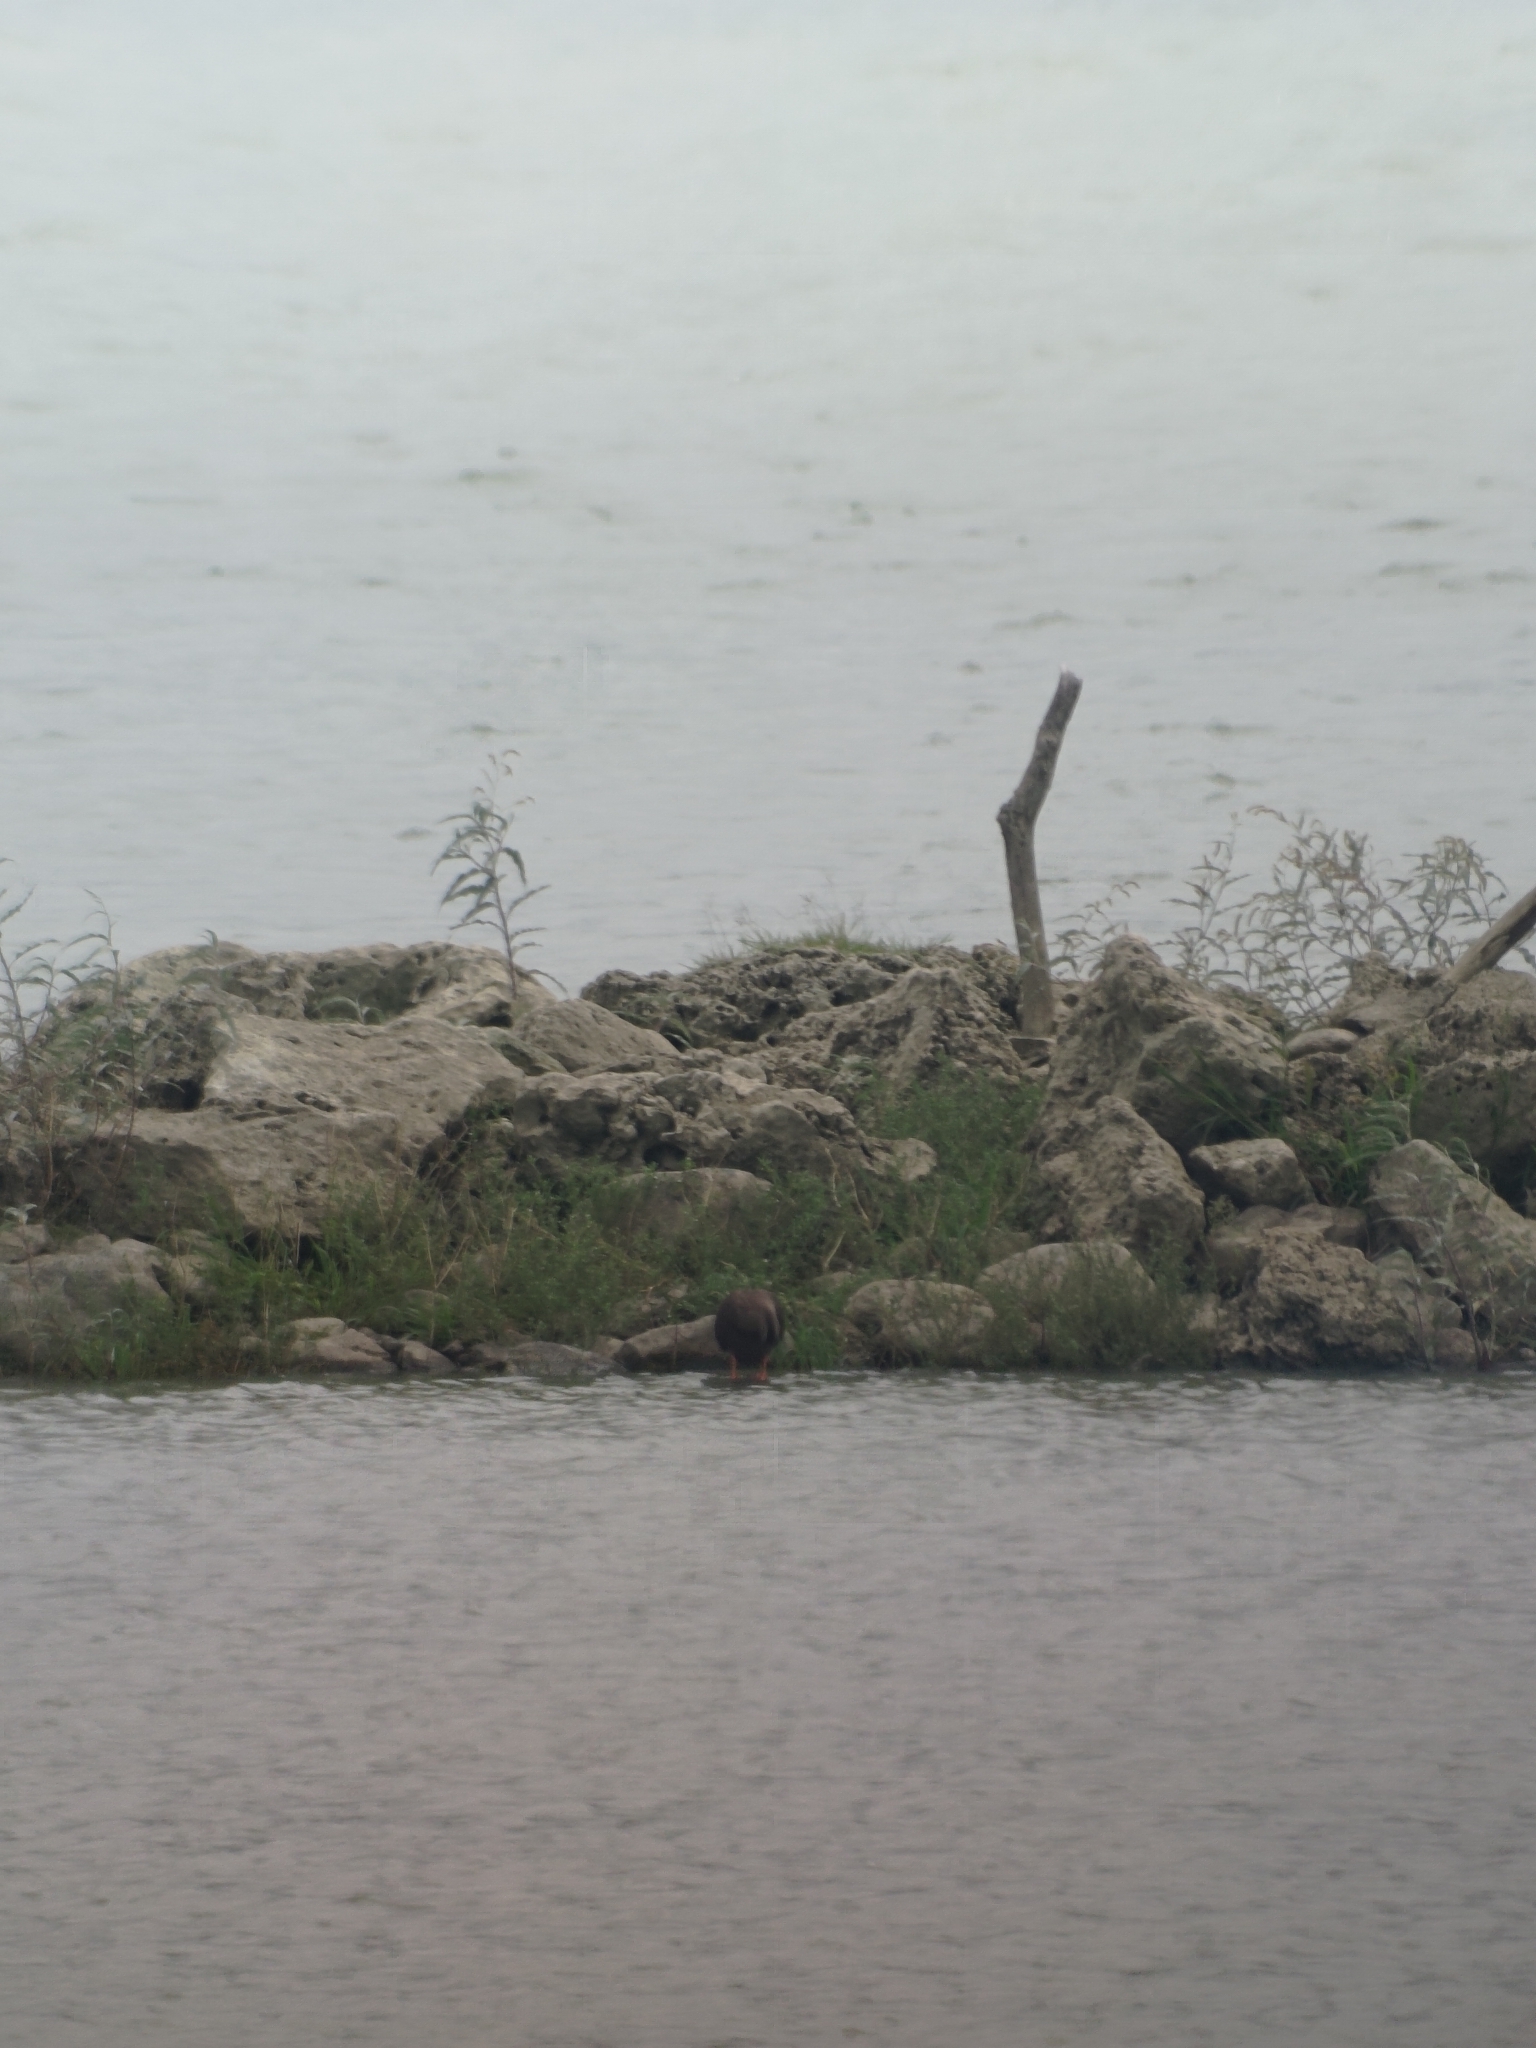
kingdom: Animalia
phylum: Chordata
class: Aves
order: Anseriformes
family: Anatidae
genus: Anas
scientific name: Anas zonorhyncha
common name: Eastern spot-billed duck
